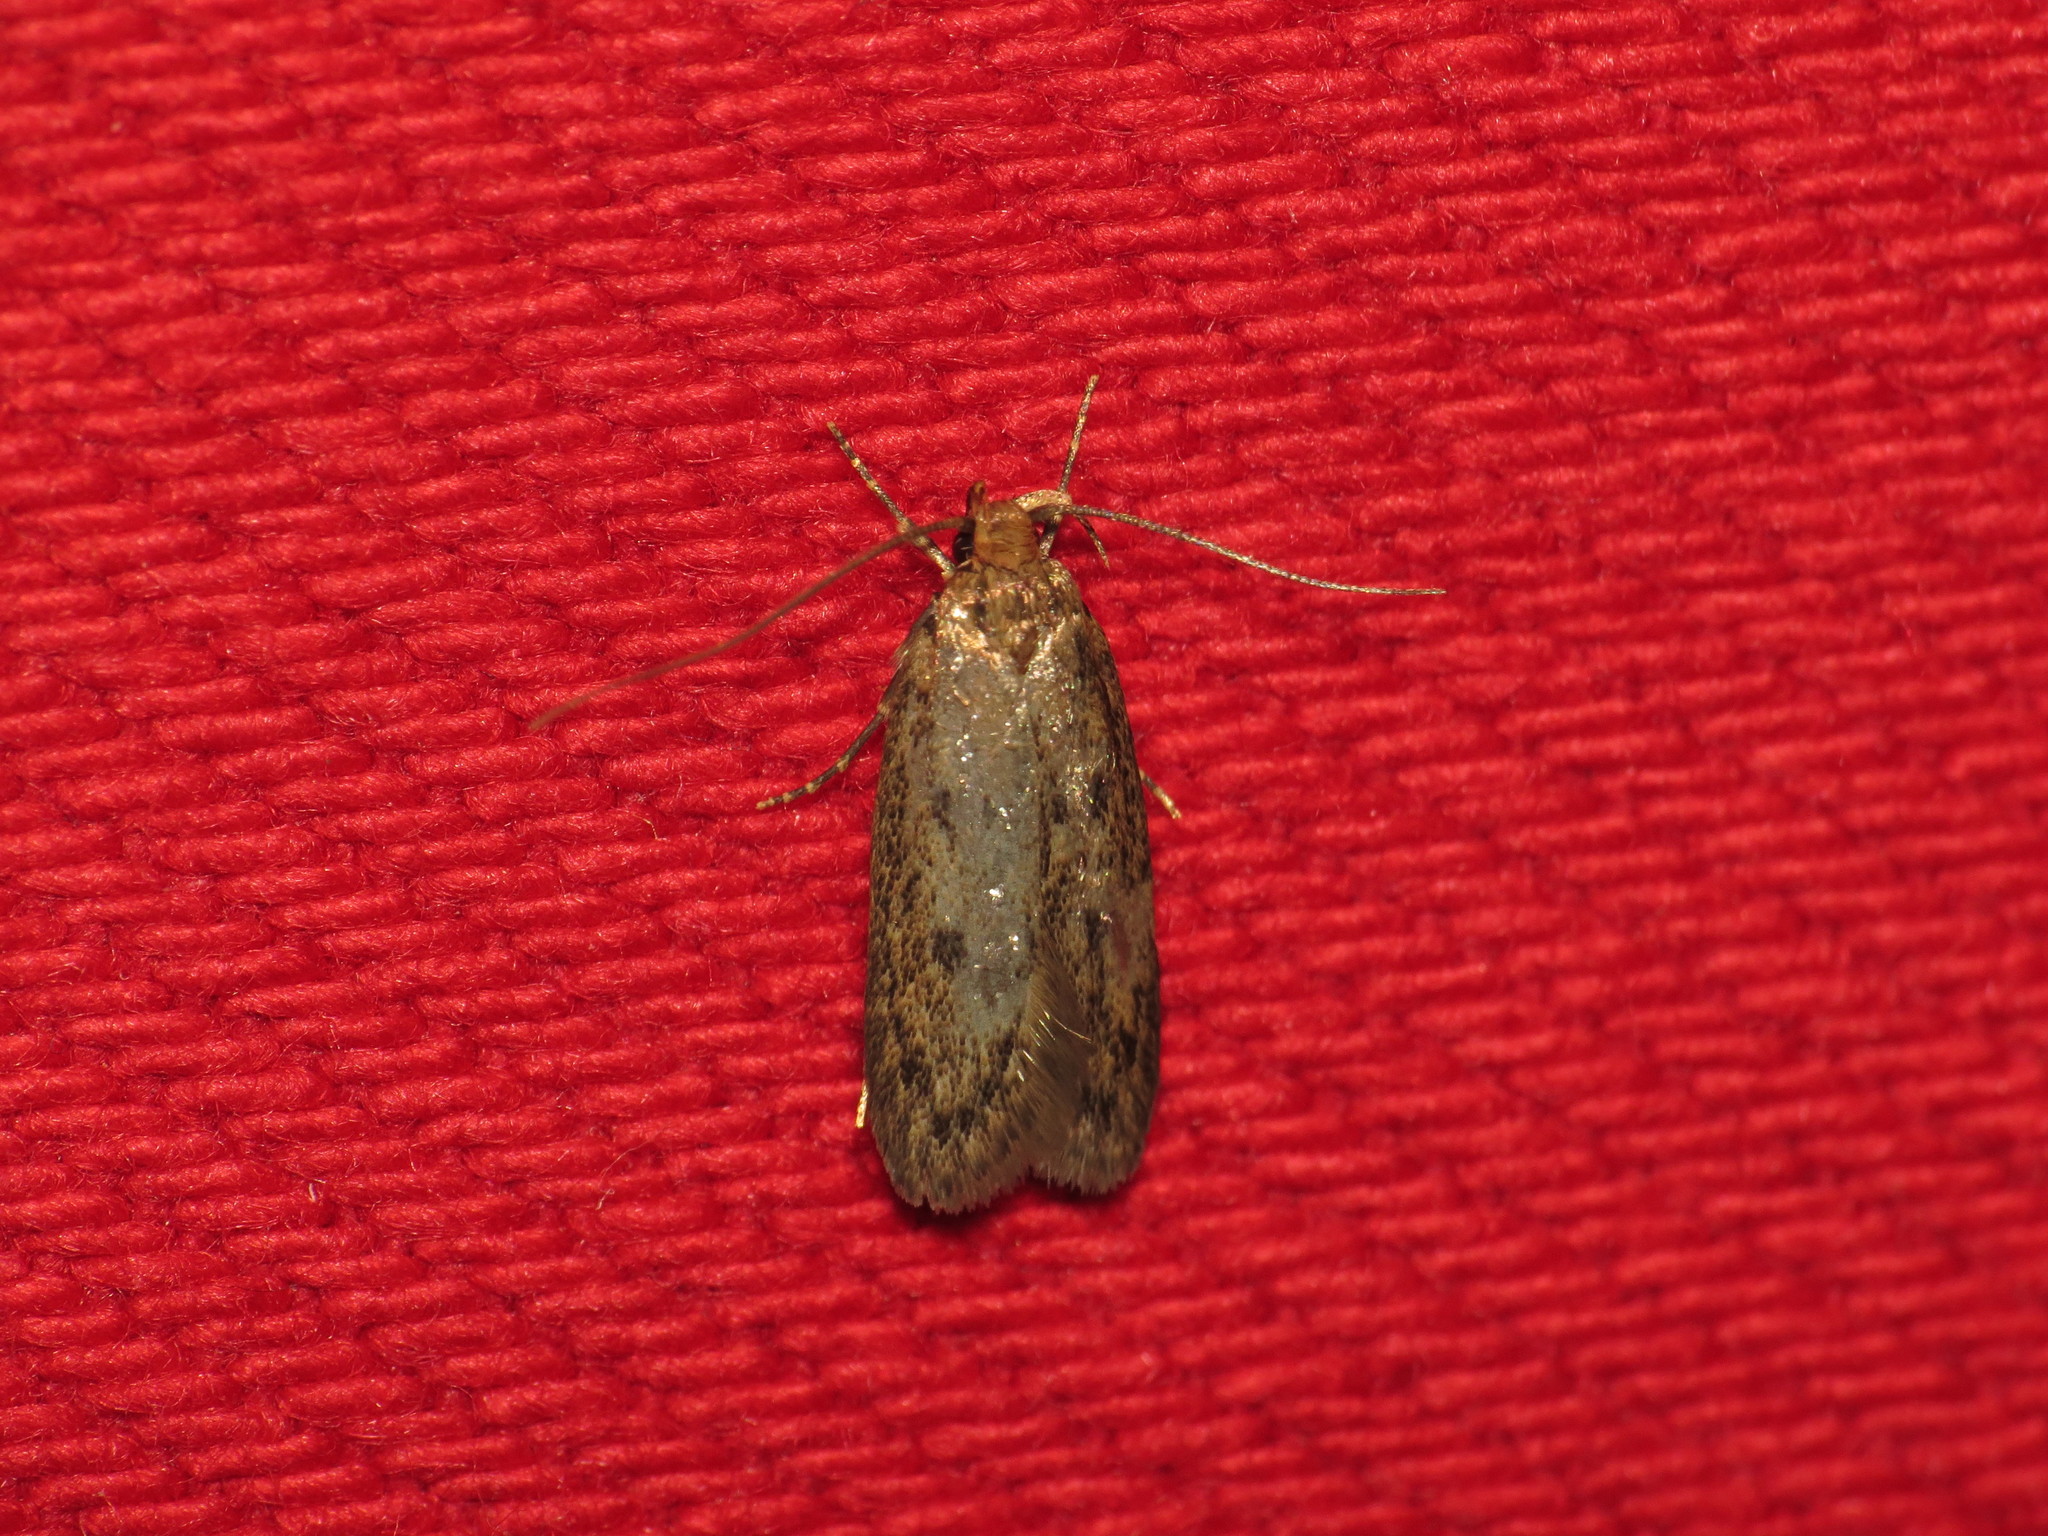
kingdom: Animalia
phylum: Arthropoda
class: Insecta
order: Lepidoptera
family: Oecophoridae
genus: Hofmannophila
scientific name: Hofmannophila pseudospretella
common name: Brown house moth
